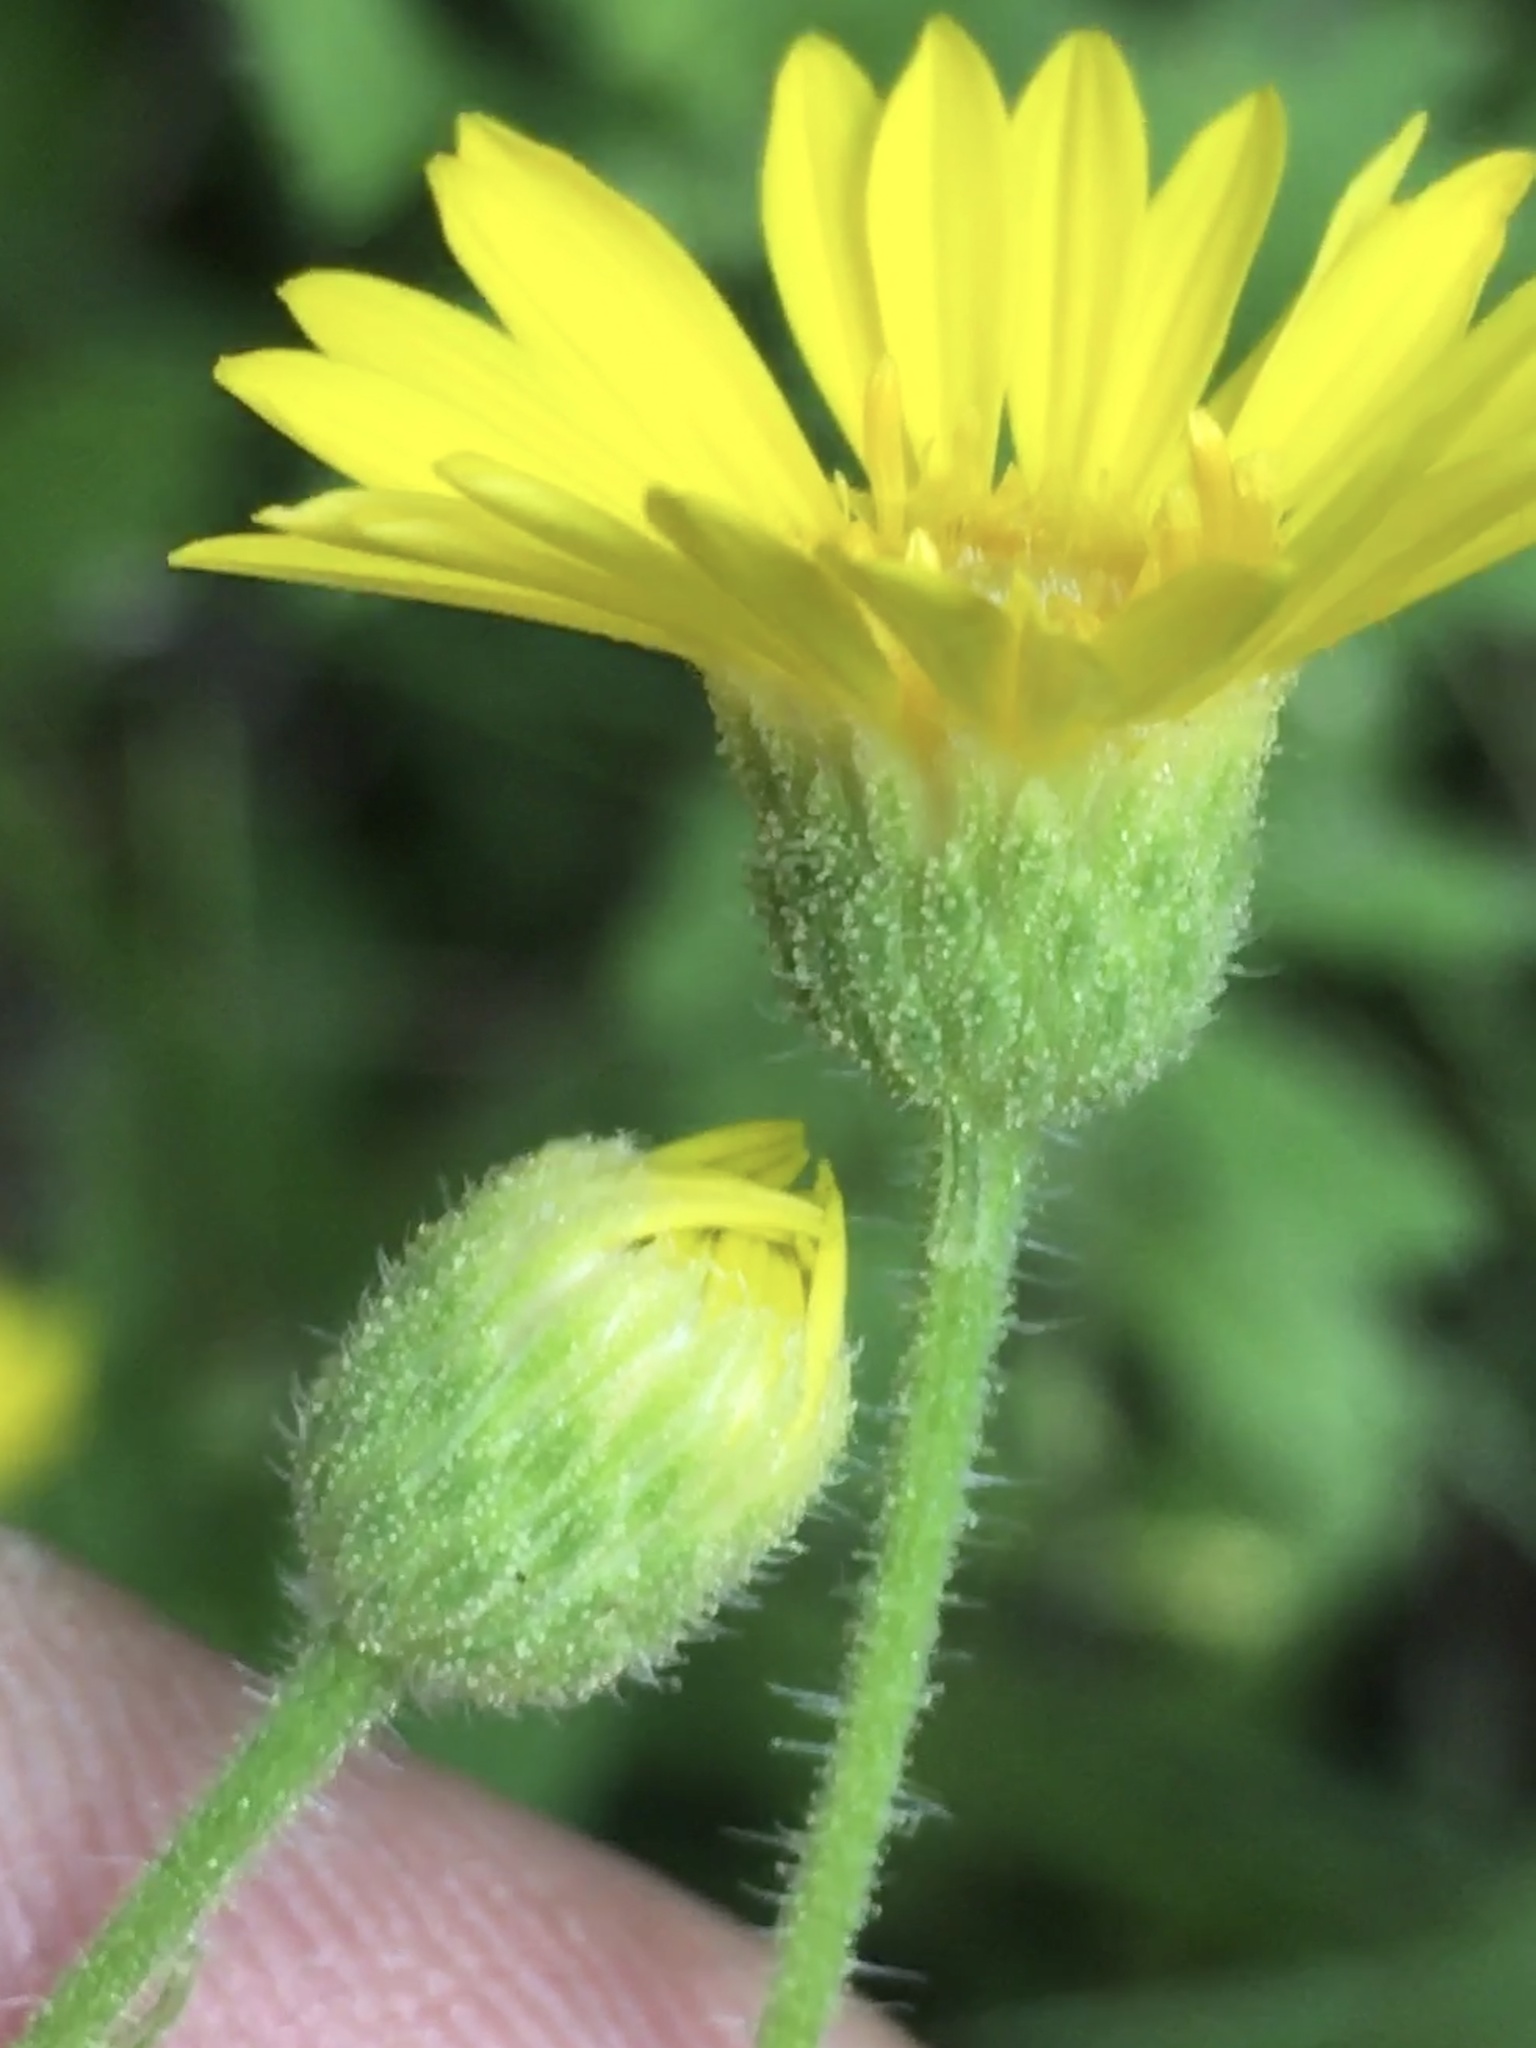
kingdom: Plantae
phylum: Tracheophyta
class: Magnoliopsida
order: Asterales
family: Asteraceae
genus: Heterotheca
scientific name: Heterotheca subaxillaris
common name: Camphorweed
